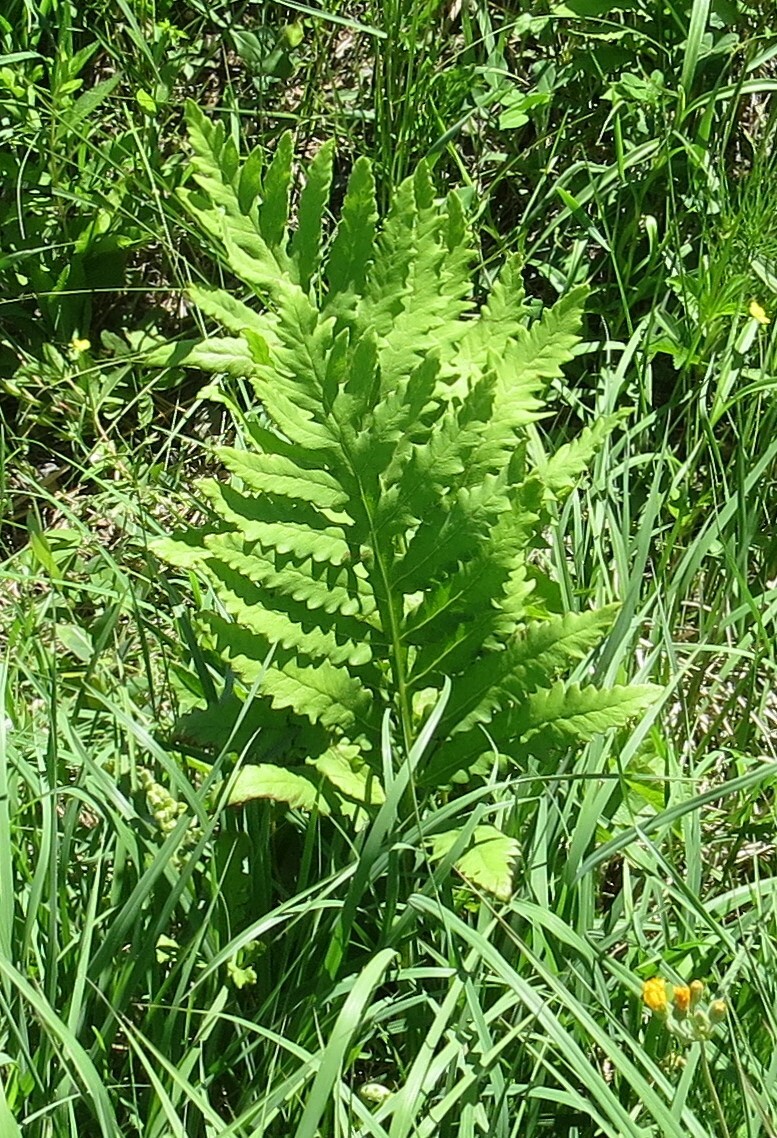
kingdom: Plantae
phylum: Tracheophyta
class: Polypodiopsida
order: Polypodiales
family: Onocleaceae
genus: Onoclea
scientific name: Onoclea sensibilis
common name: Sensitive fern
